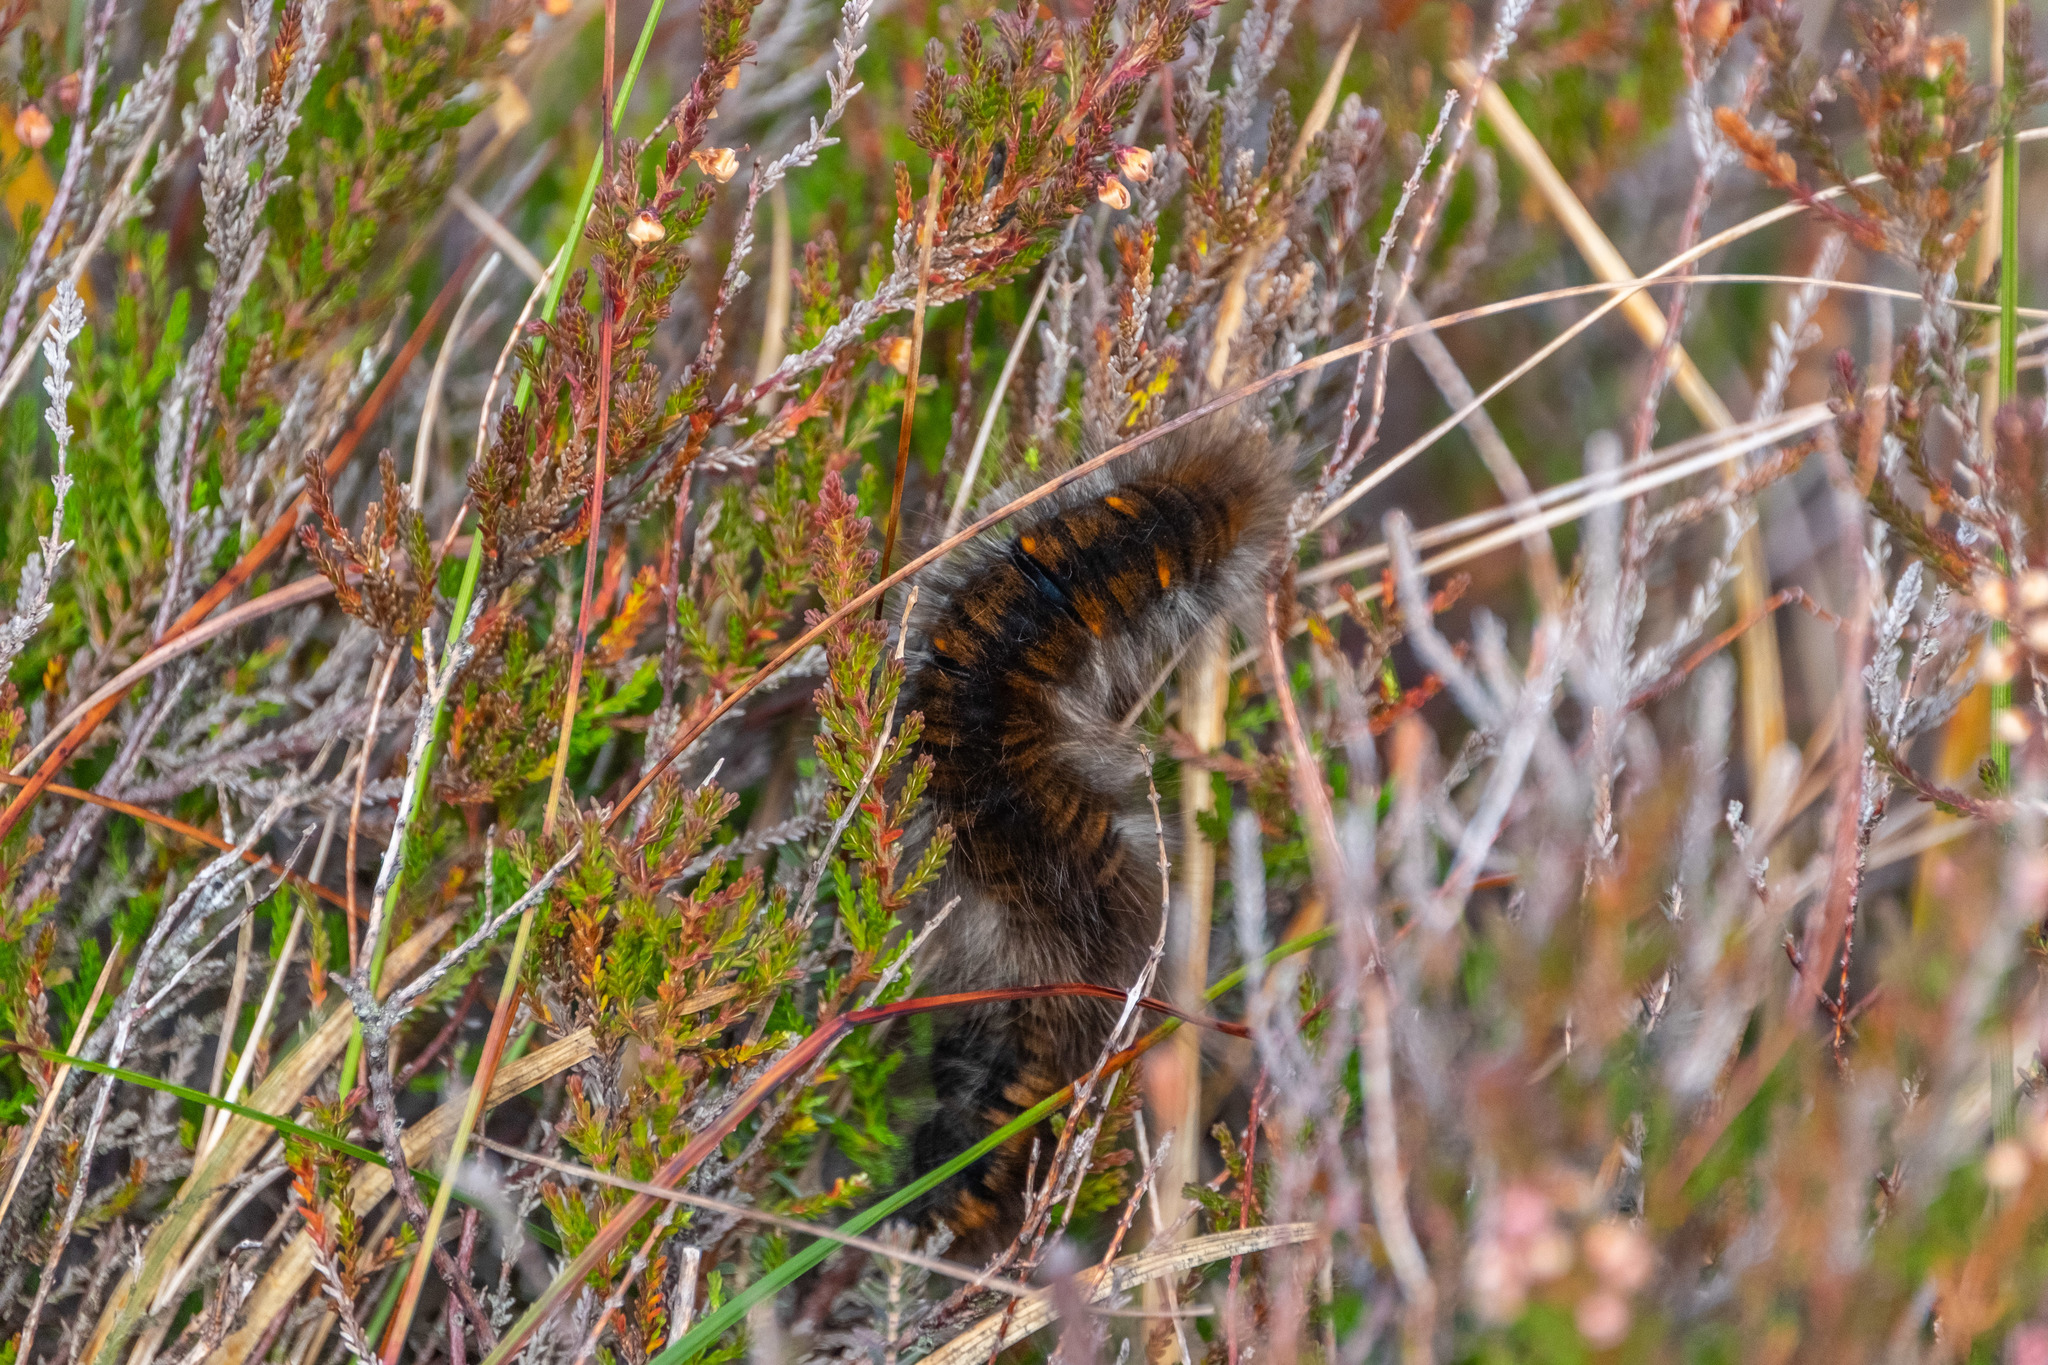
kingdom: Animalia
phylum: Arthropoda
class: Insecta
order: Lepidoptera
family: Lasiocampidae
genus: Macrothylacia
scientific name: Macrothylacia rubi
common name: Fox moth
